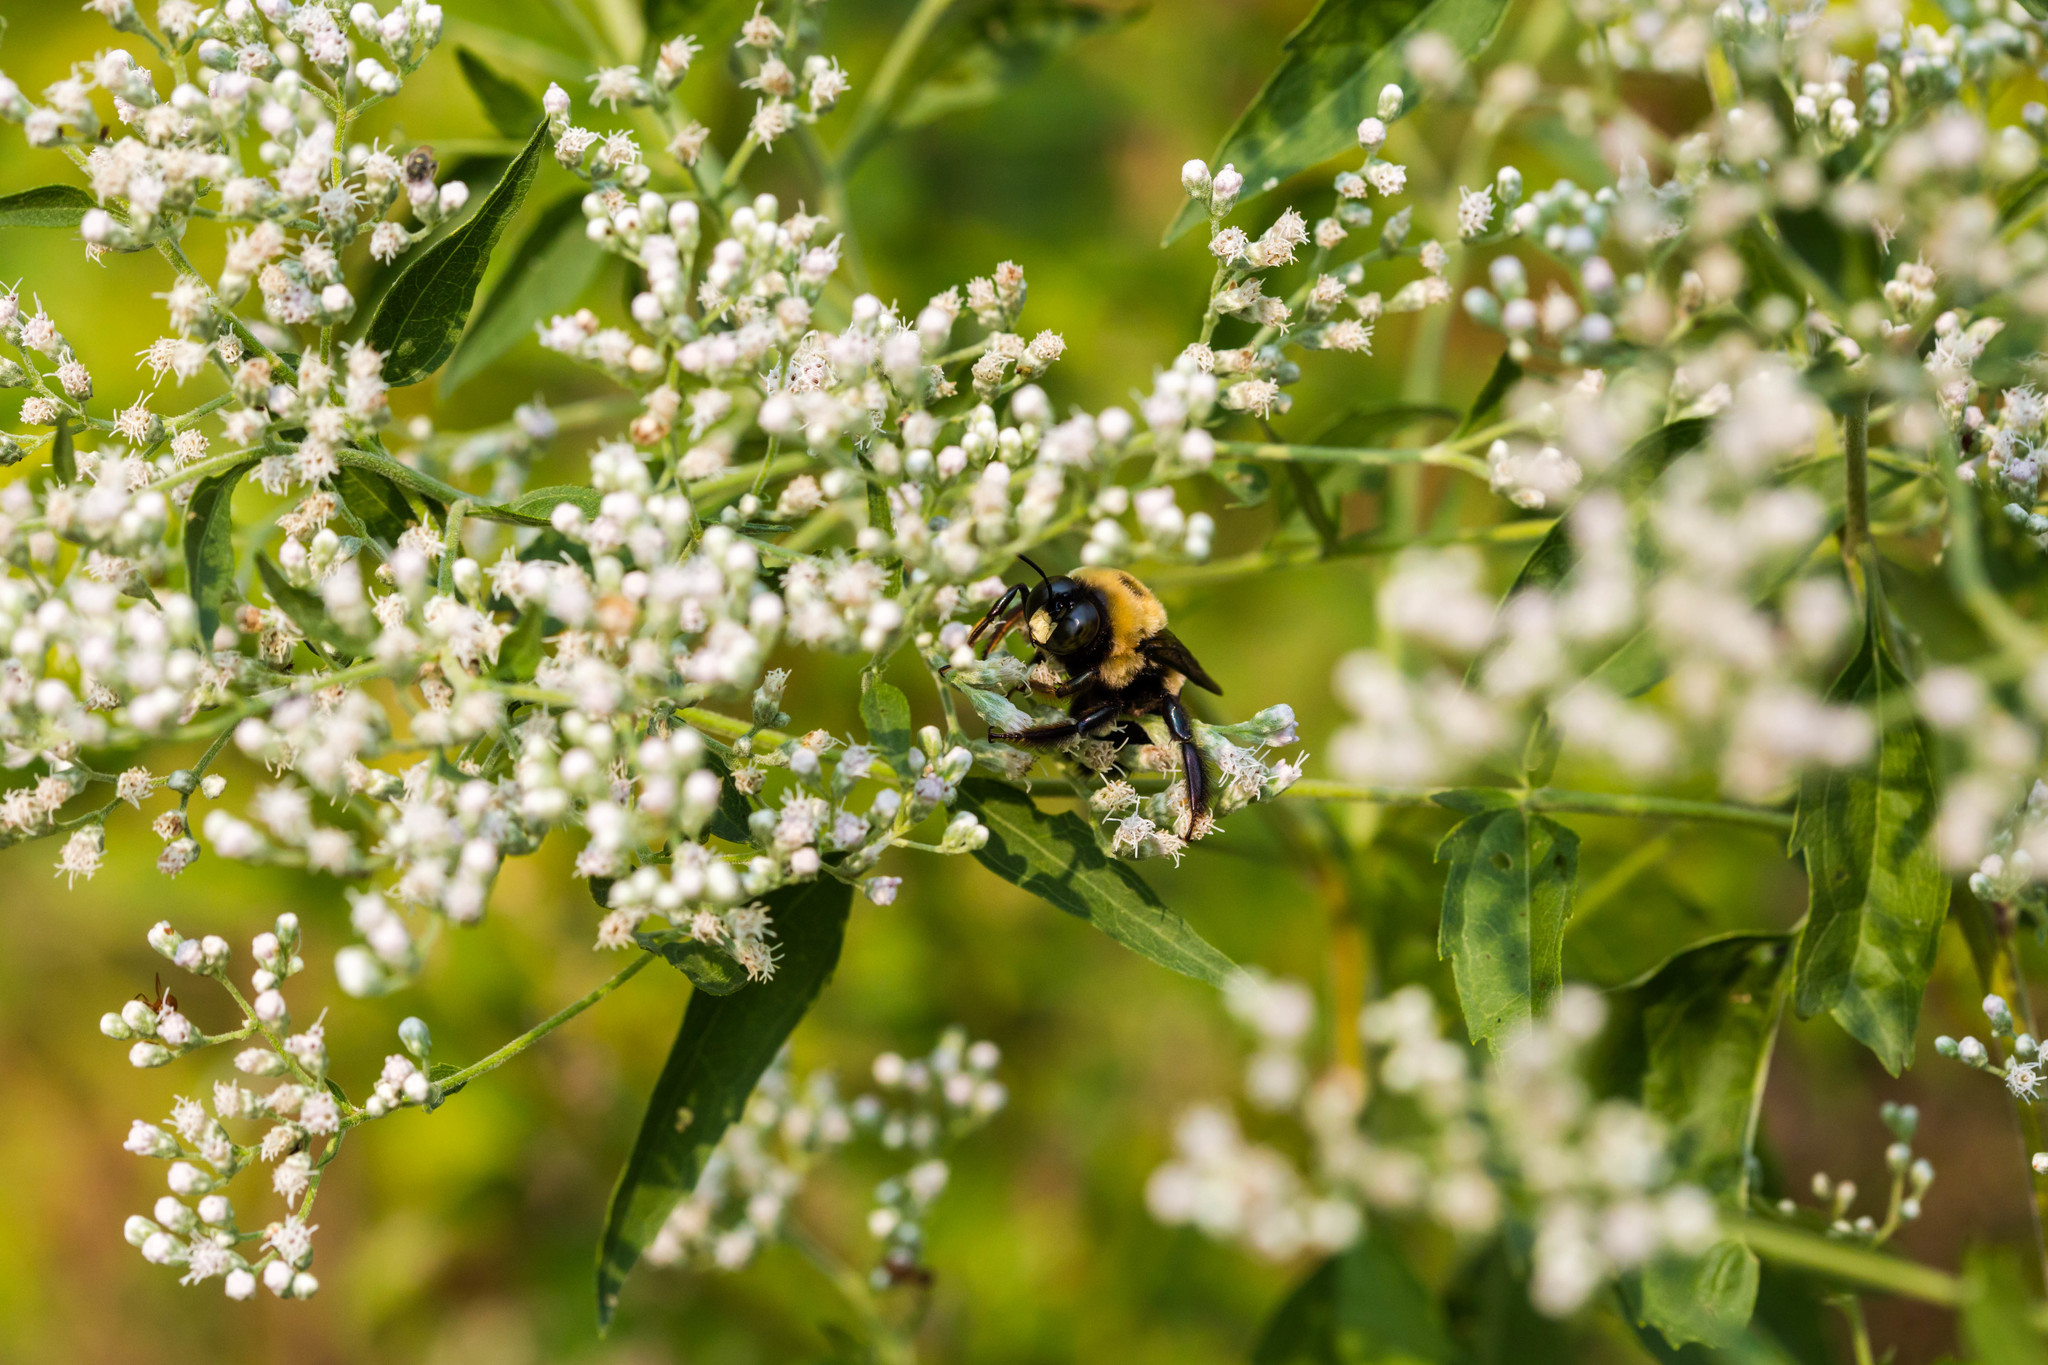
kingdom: Animalia
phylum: Arthropoda
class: Insecta
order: Hymenoptera
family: Apidae
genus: Xylocopa
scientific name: Xylocopa virginica
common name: Carpenter bee
